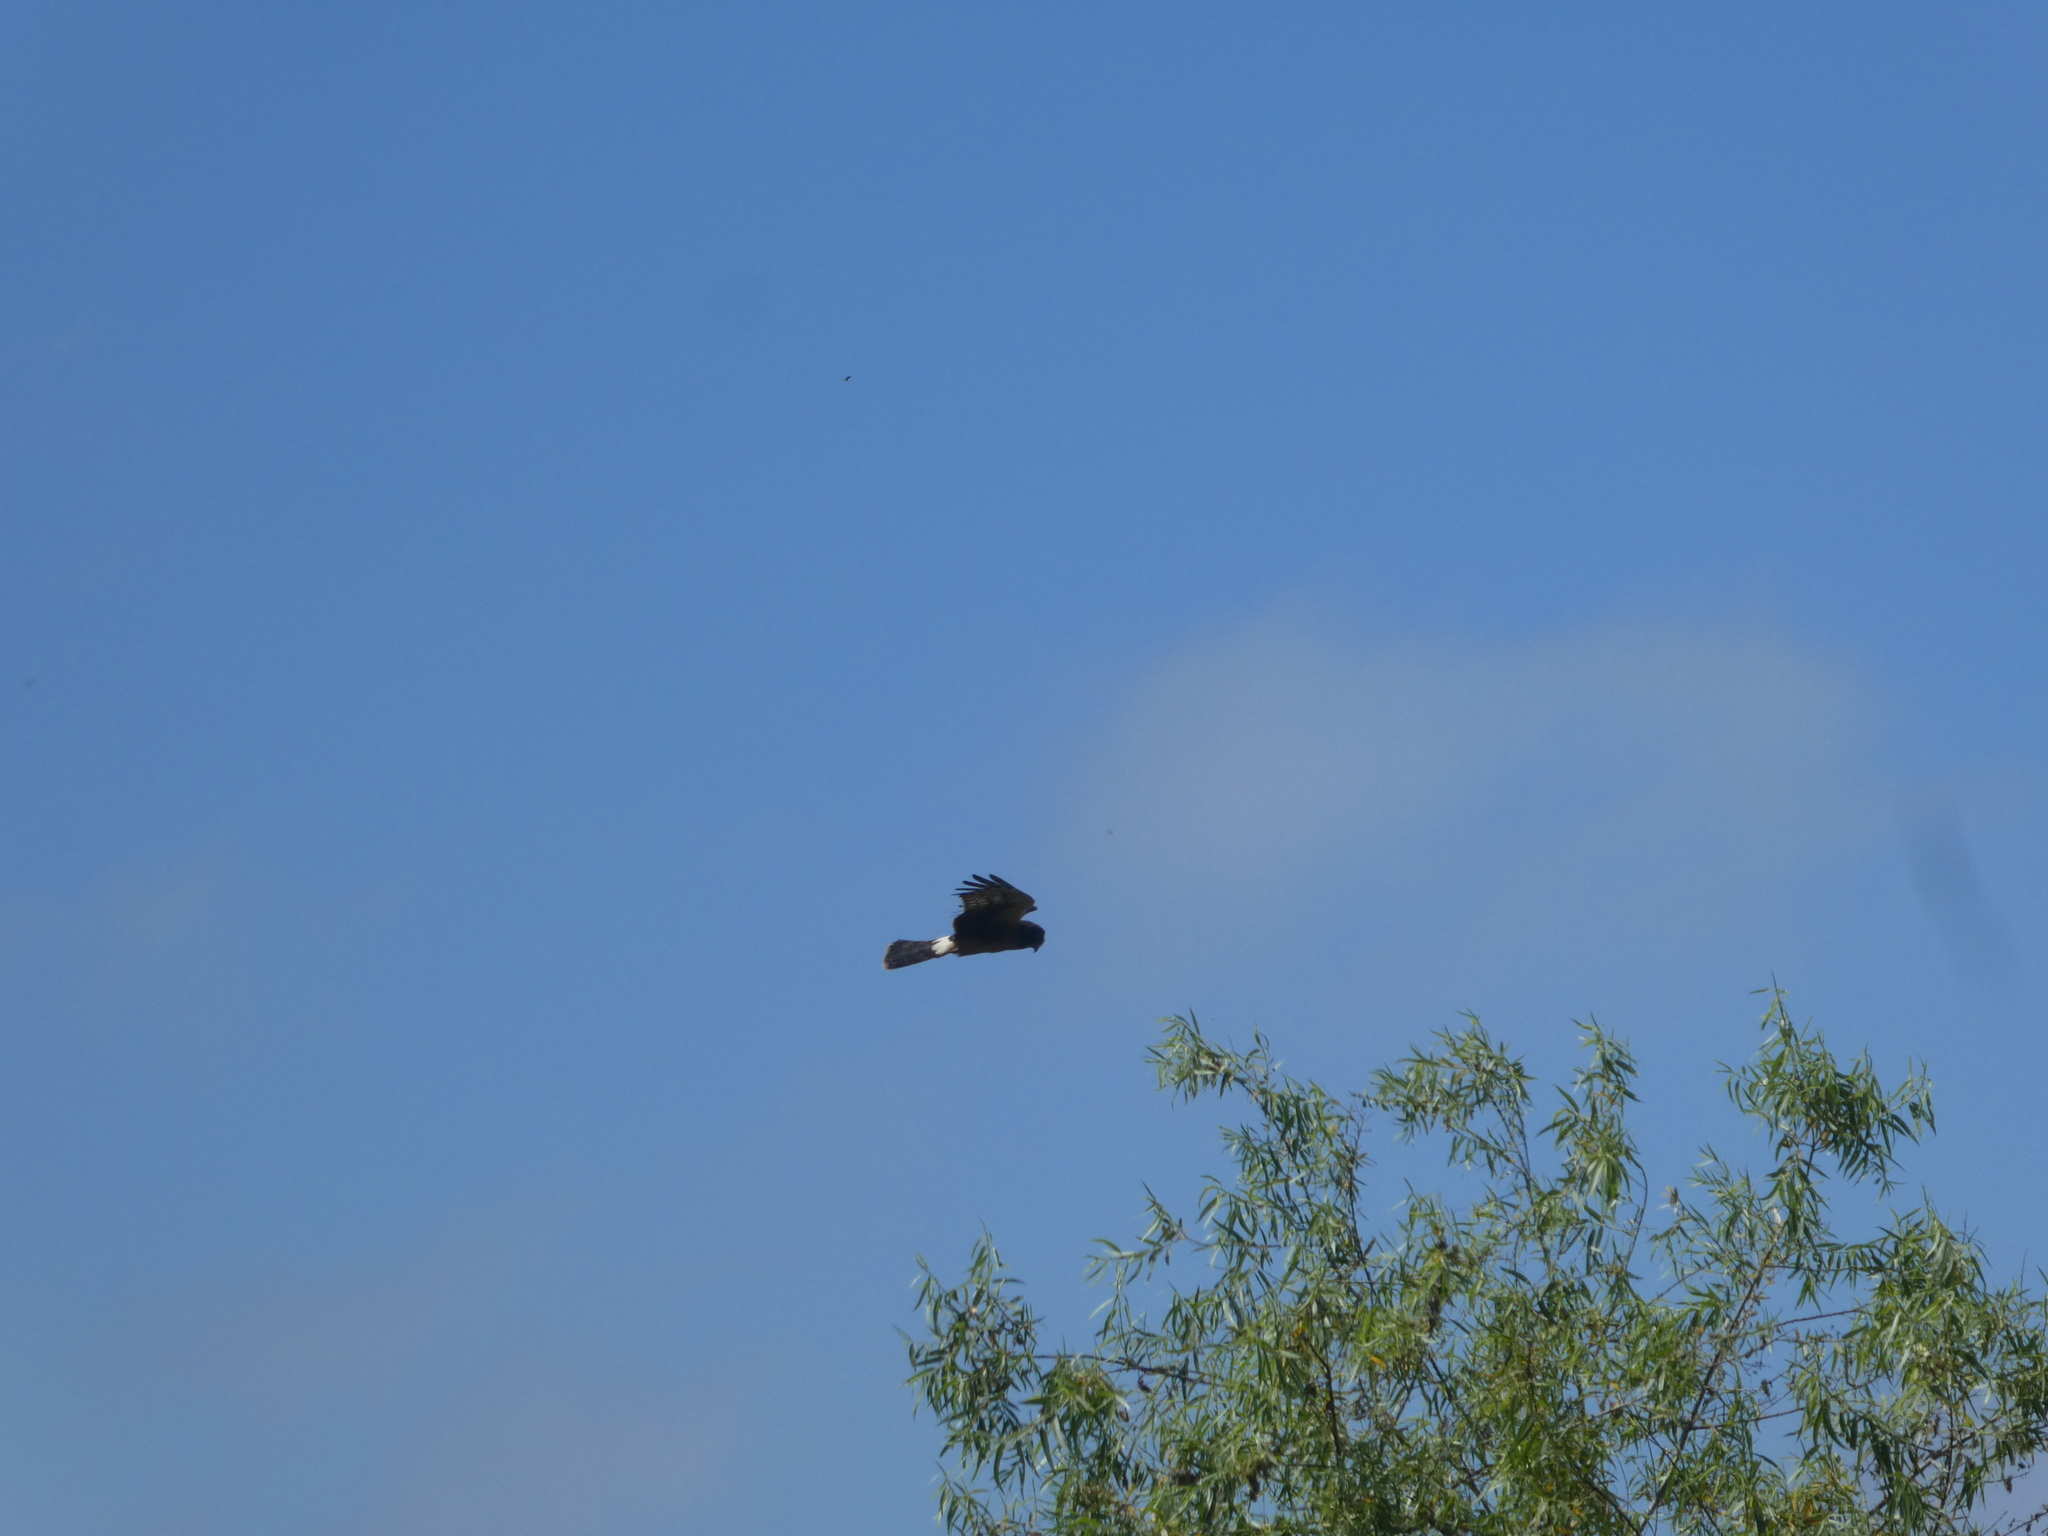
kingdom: Animalia
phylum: Chordata
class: Aves
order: Accipitriformes
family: Accipitridae
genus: Circus
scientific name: Circus cyaneus
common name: Hen harrier
